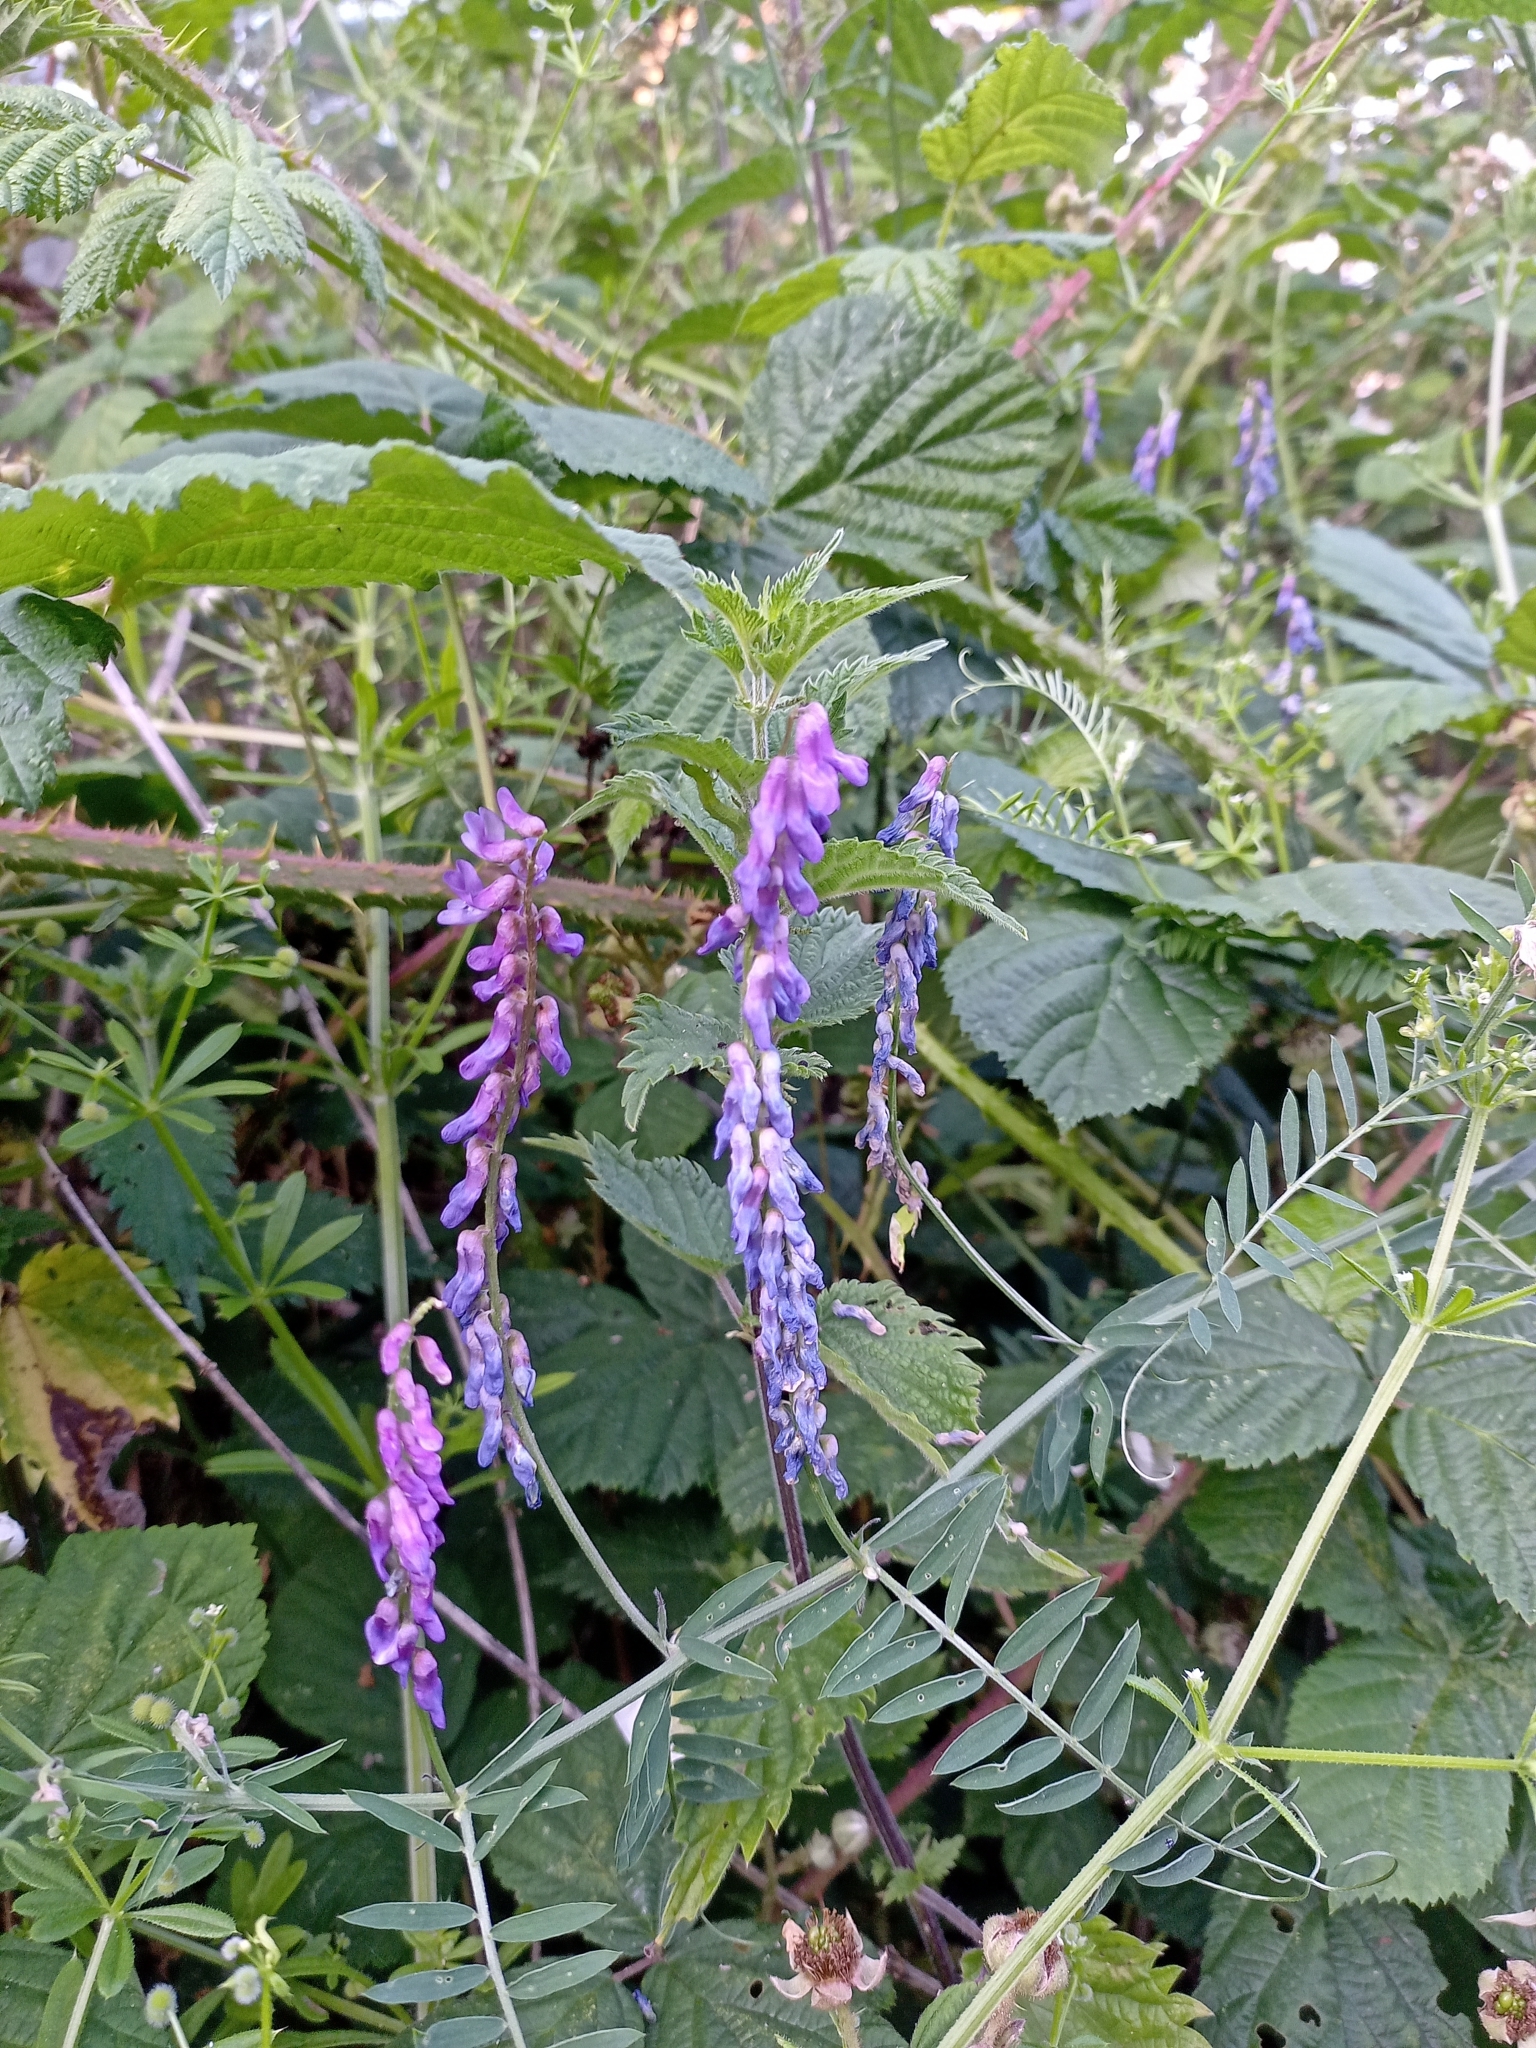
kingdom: Plantae
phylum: Tracheophyta
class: Magnoliopsida
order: Fabales
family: Fabaceae
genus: Vicia
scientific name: Vicia cracca
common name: Bird vetch
